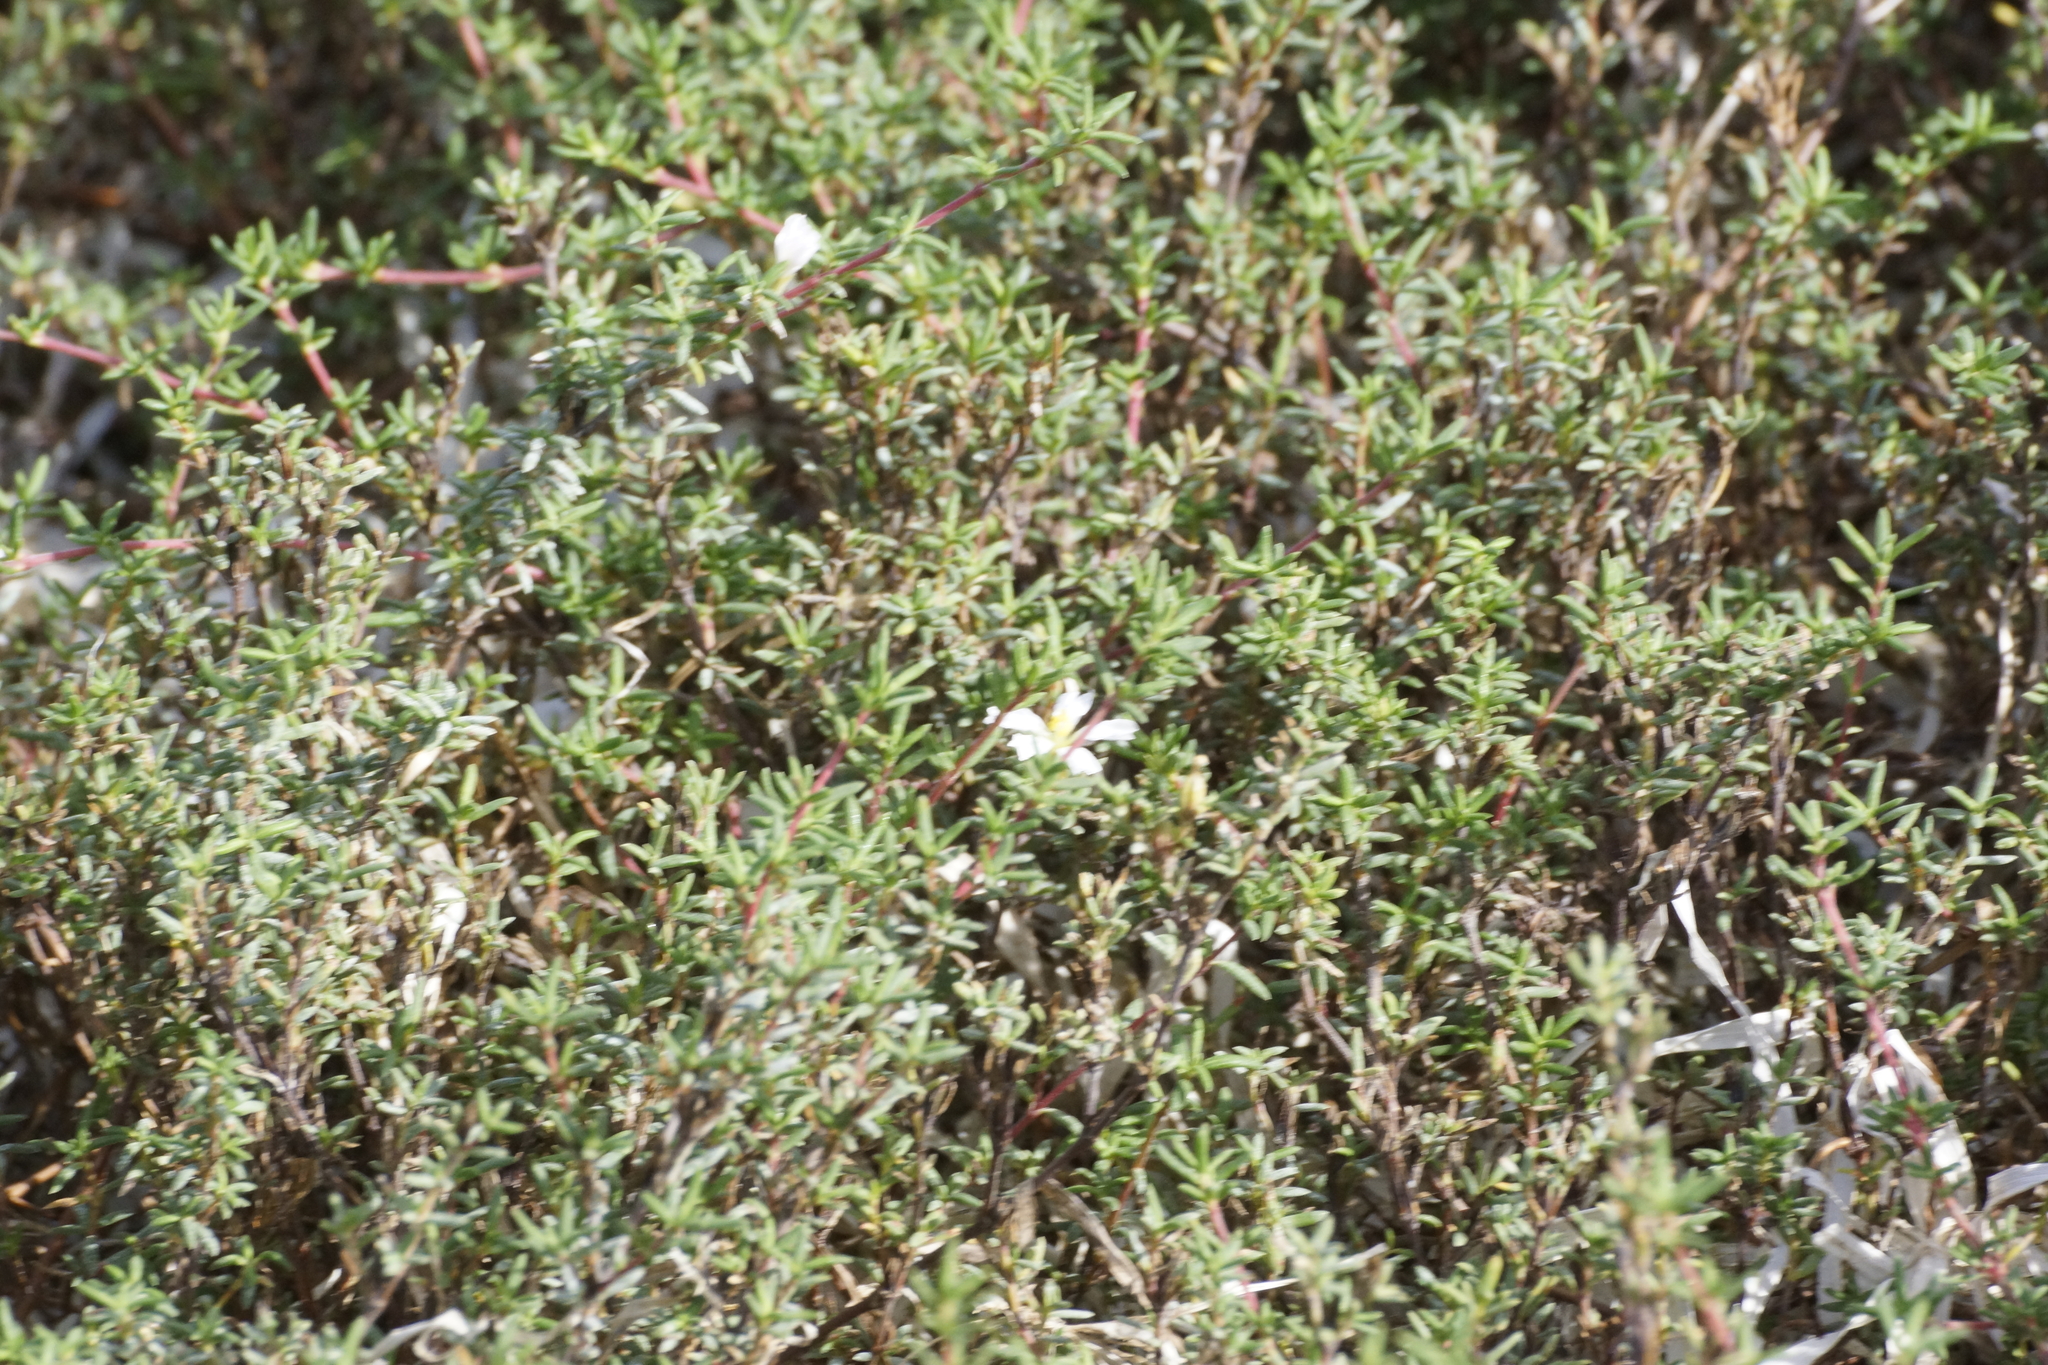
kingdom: Plantae
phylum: Tracheophyta
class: Magnoliopsida
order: Caryophyllales
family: Frankeniaceae
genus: Frankenia
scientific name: Frankenia pauciflora
